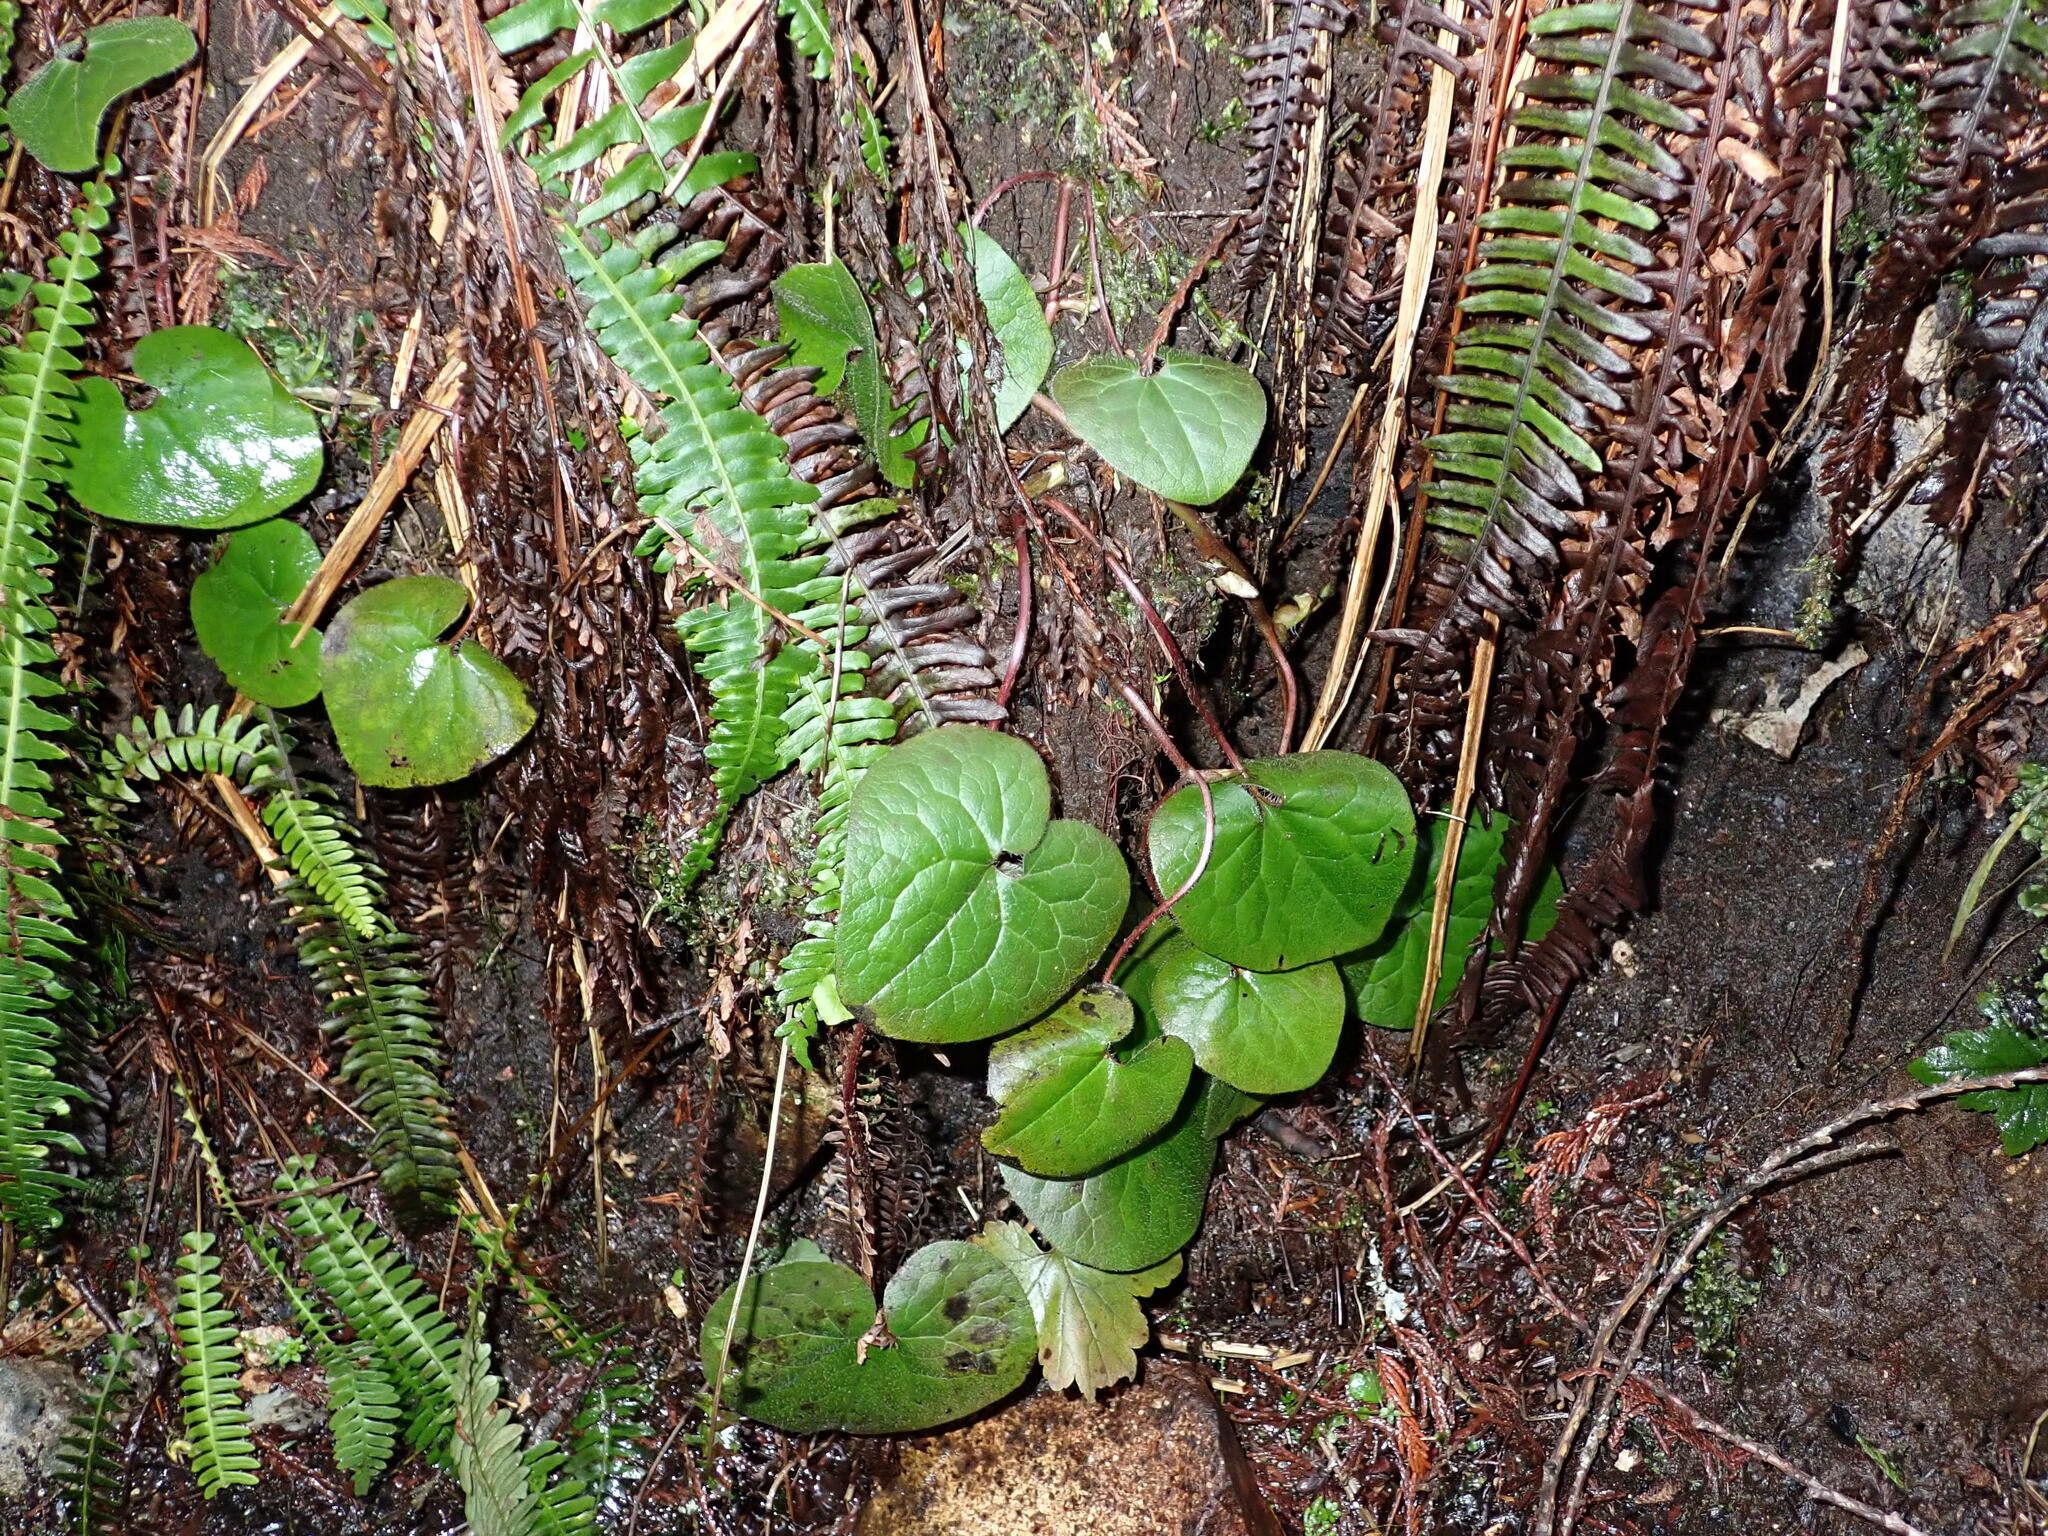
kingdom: Plantae
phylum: Tracheophyta
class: Magnoliopsida
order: Piperales
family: Aristolochiaceae
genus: Asarum
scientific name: Asarum caudatum
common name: Wild ginger
